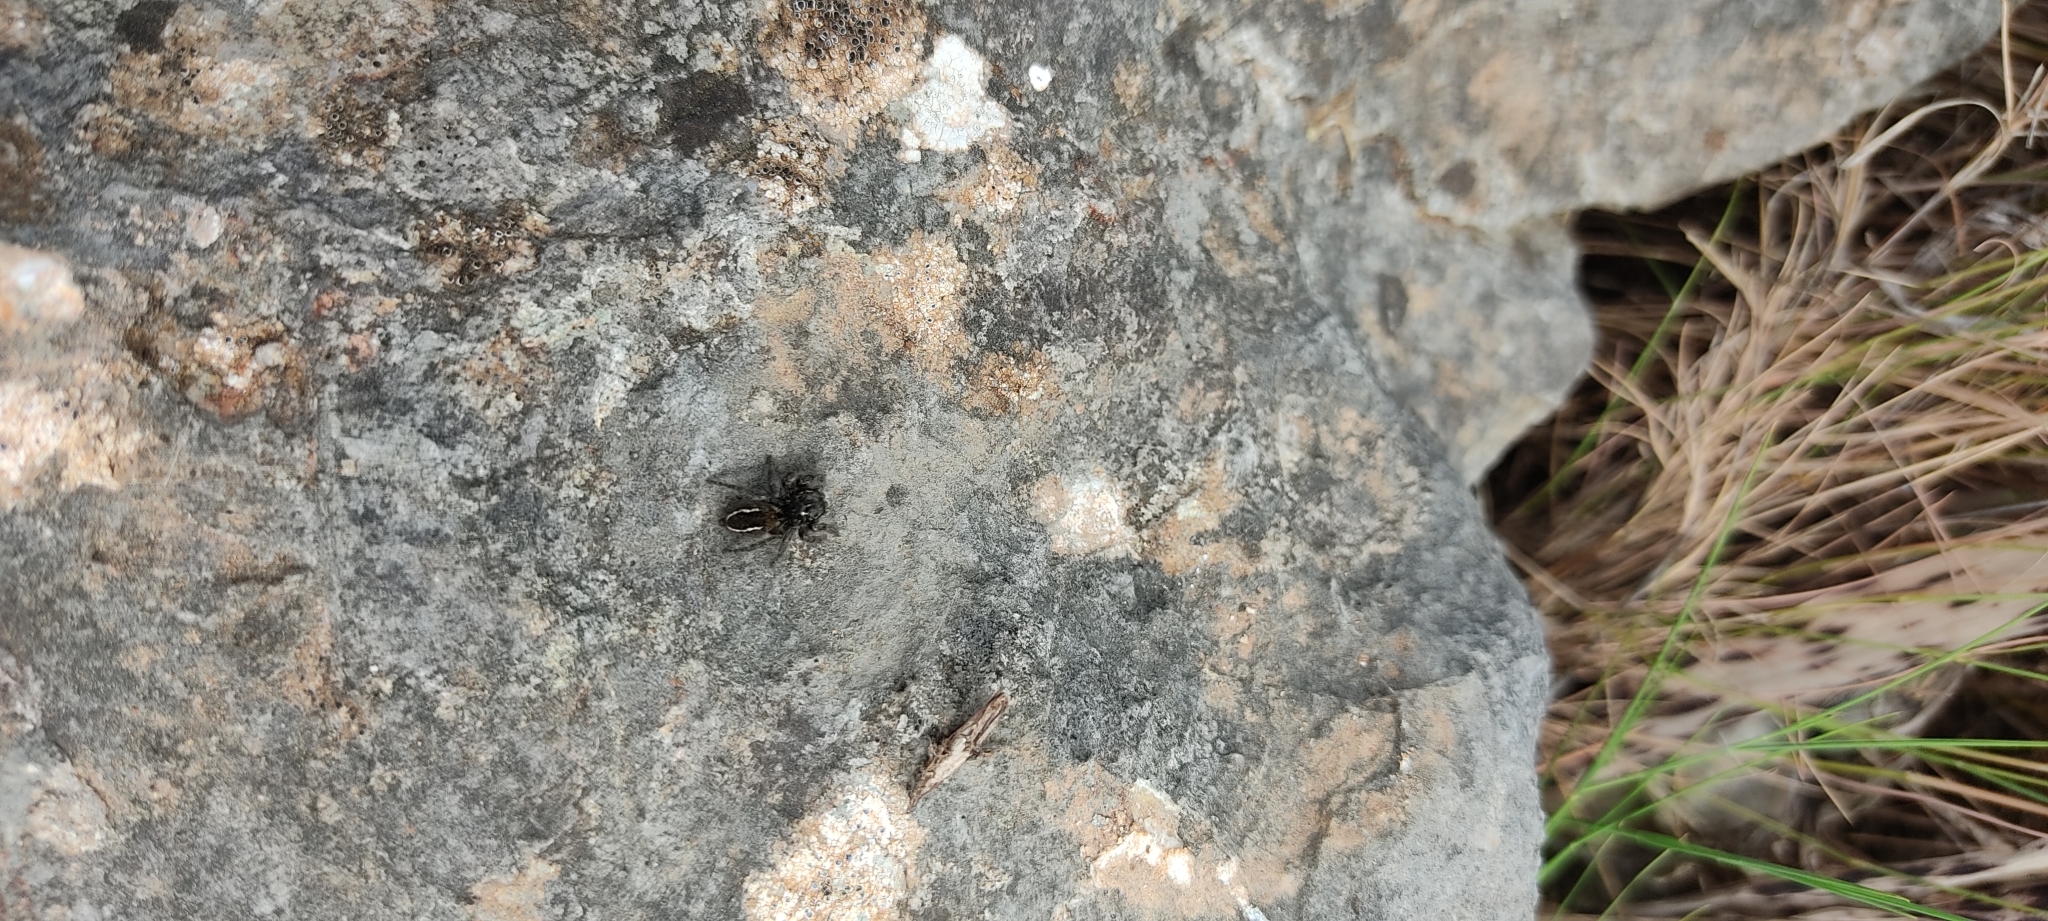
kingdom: Animalia
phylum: Arthropoda
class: Arachnida
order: Araneae
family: Salticidae
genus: Philaeus
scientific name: Philaeus chrysops
